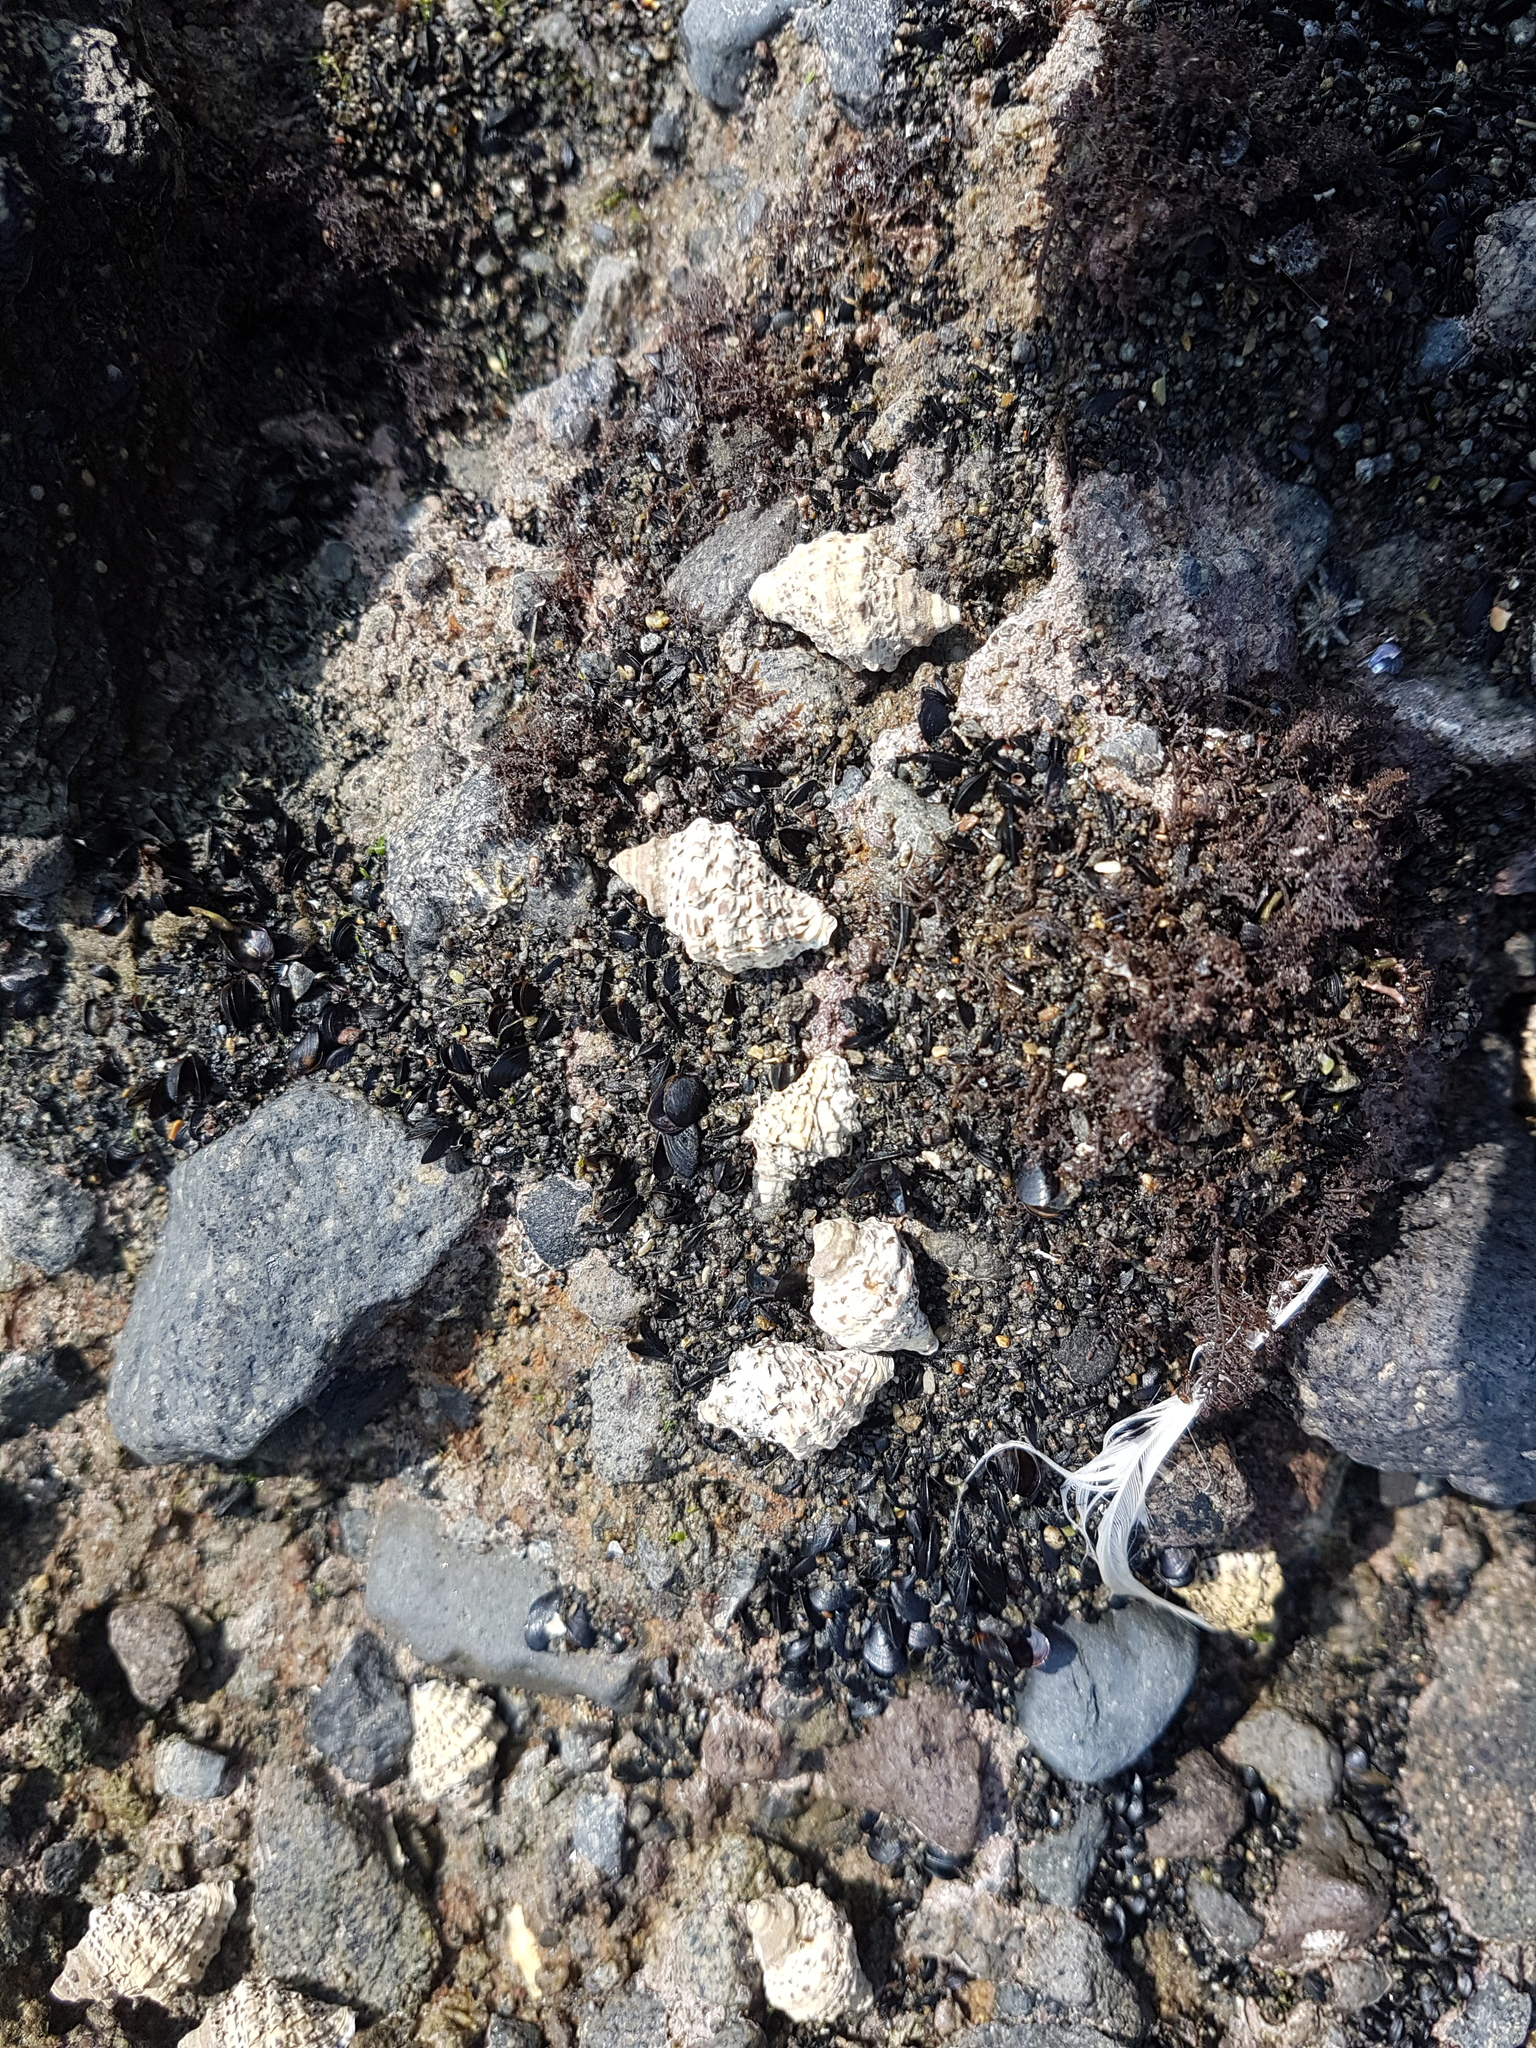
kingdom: Animalia
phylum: Mollusca
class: Gastropoda
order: Neogastropoda
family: Muricidae
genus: Haustrum
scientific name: Haustrum scobina
